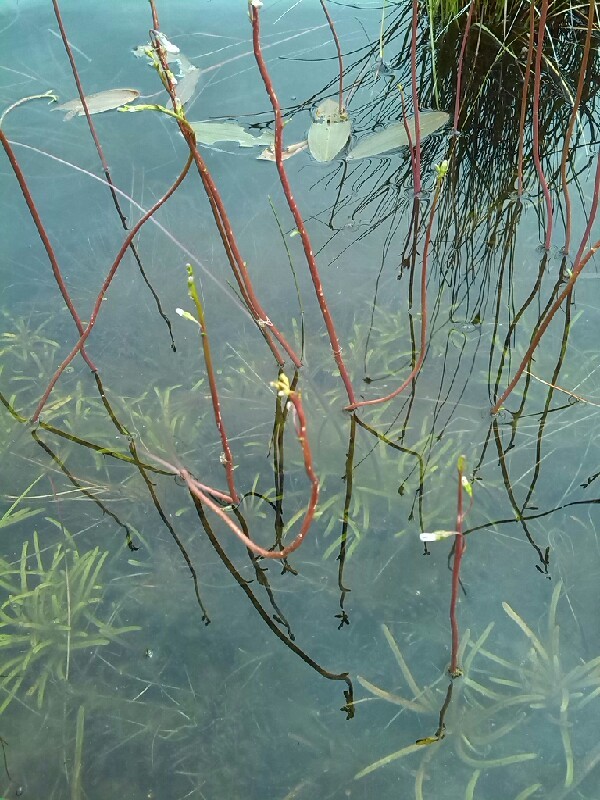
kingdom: Plantae
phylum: Tracheophyta
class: Magnoliopsida
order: Asterales
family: Campanulaceae
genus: Lobelia
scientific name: Lobelia dortmanna
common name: Water lobelia
